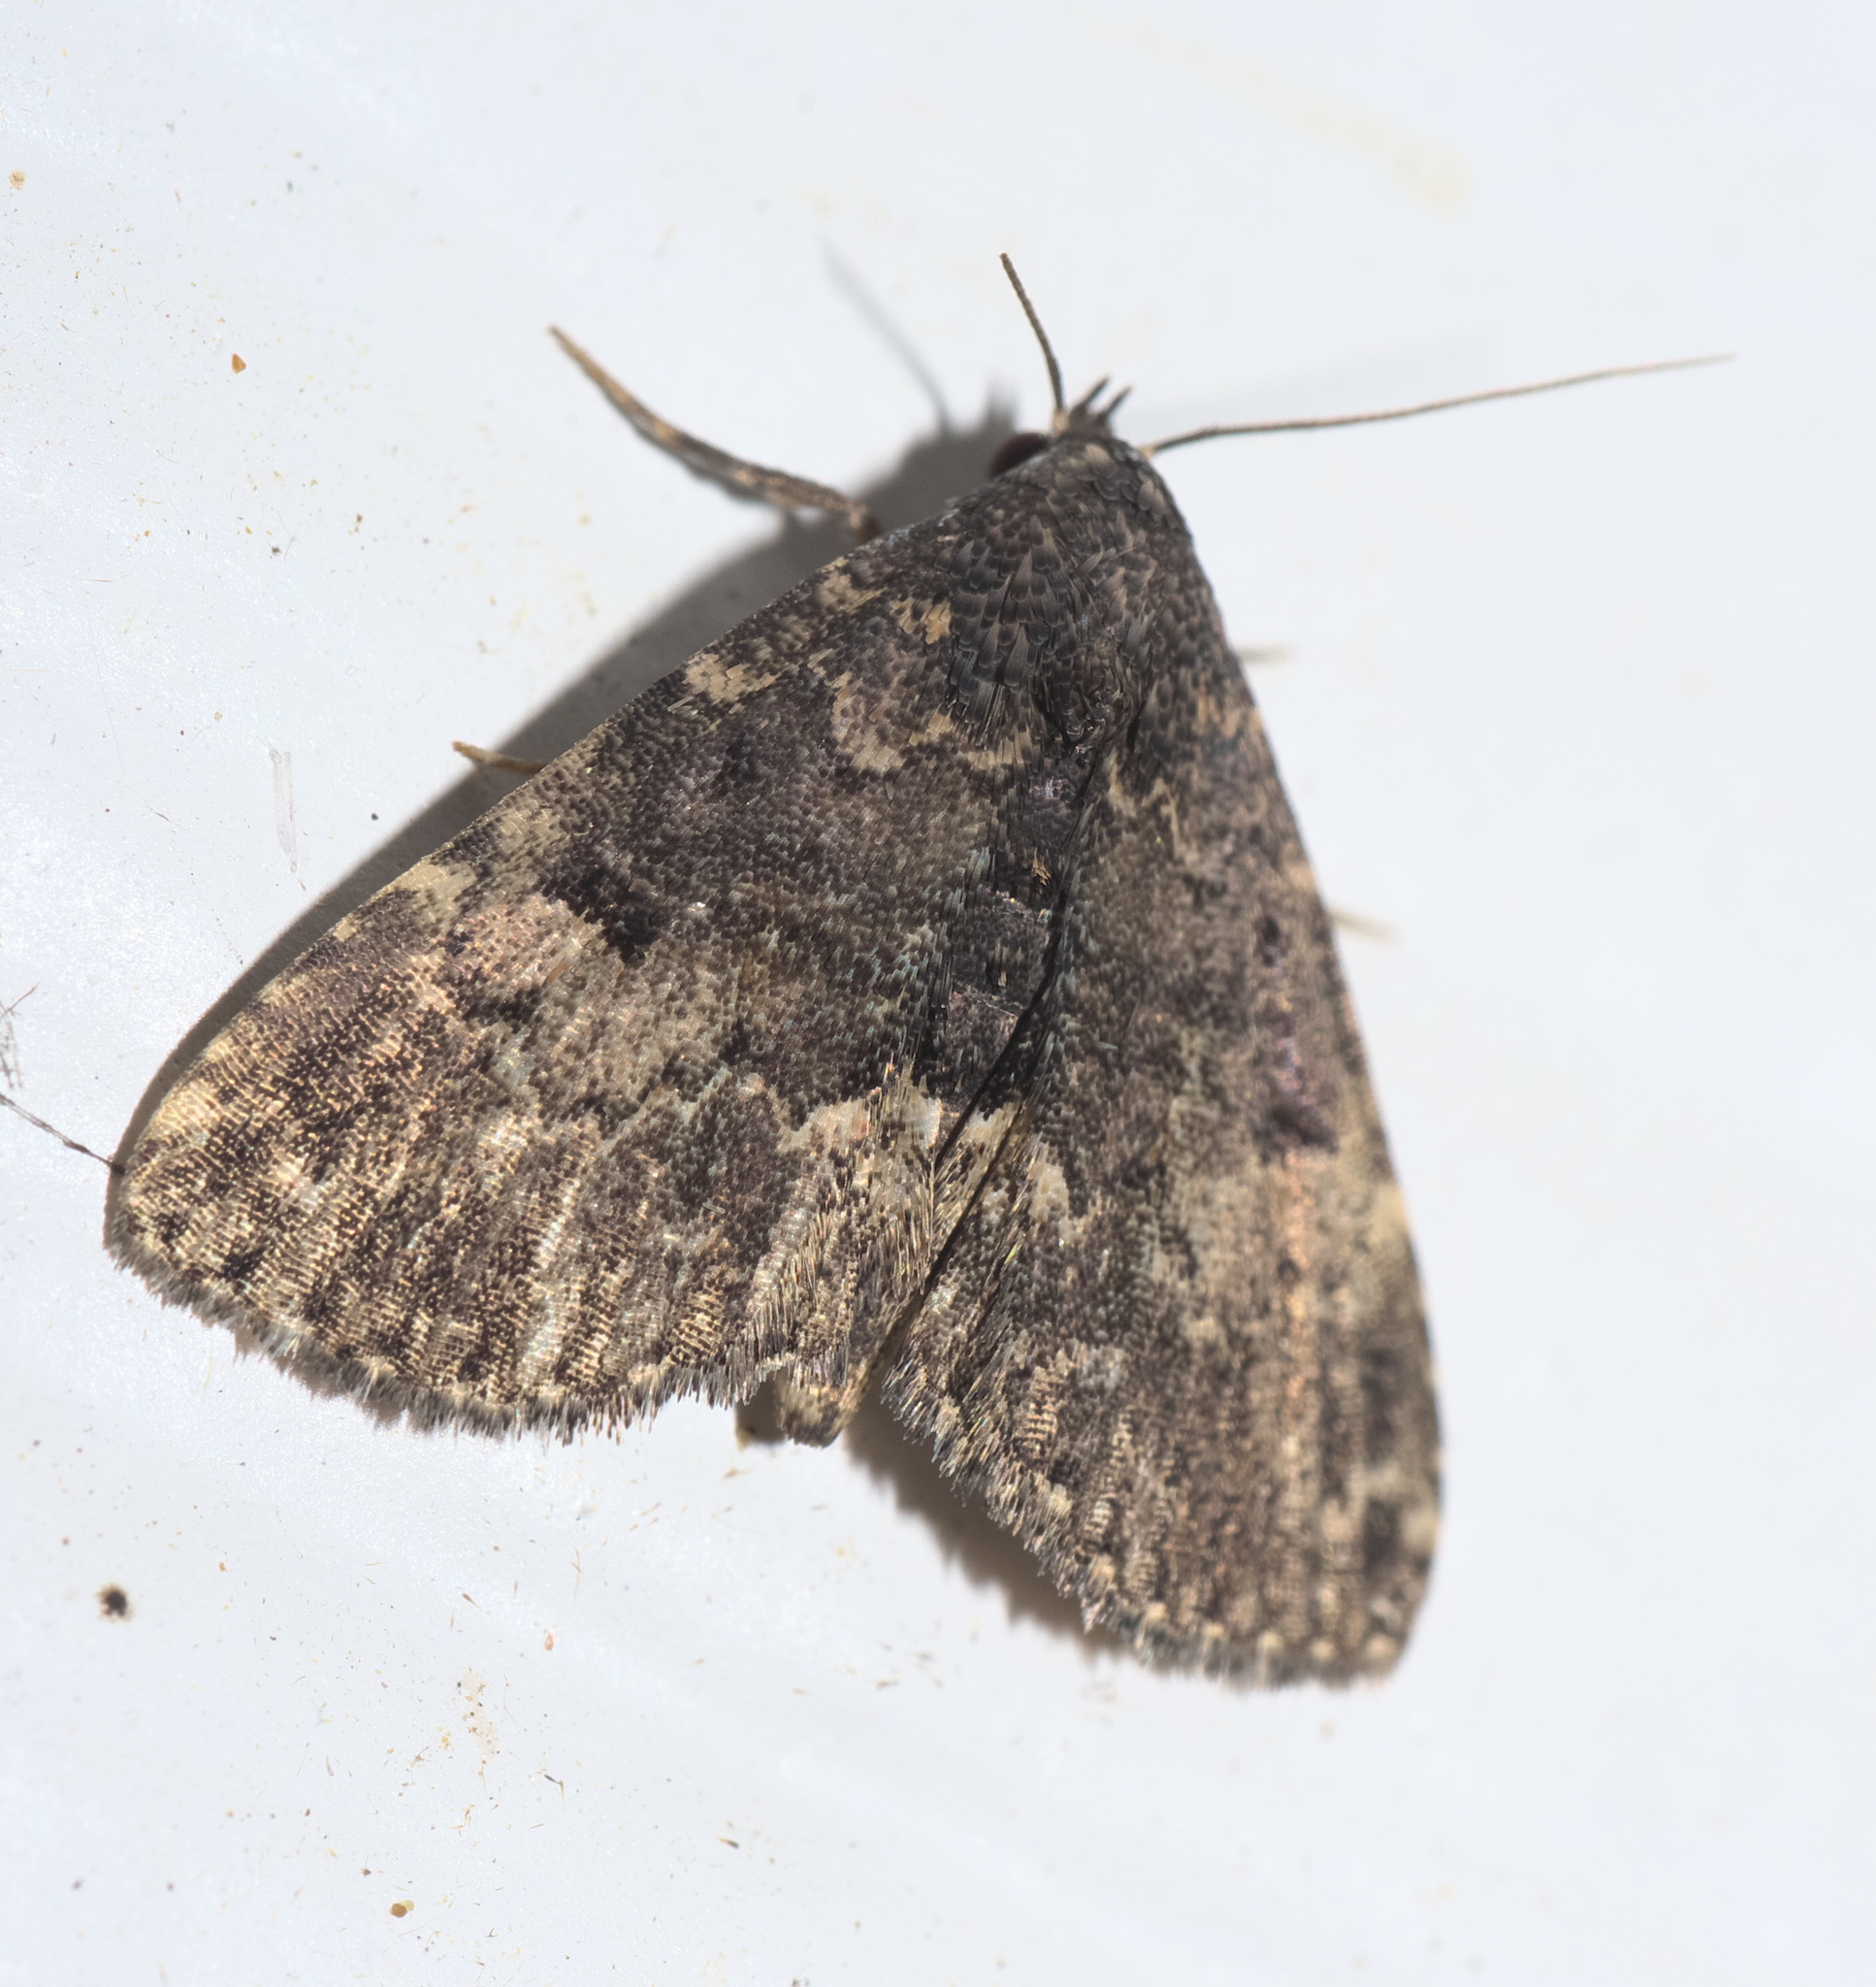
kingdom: Animalia
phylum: Arthropoda
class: Insecta
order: Lepidoptera
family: Erebidae
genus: Metalectra
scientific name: Metalectra diabolica
